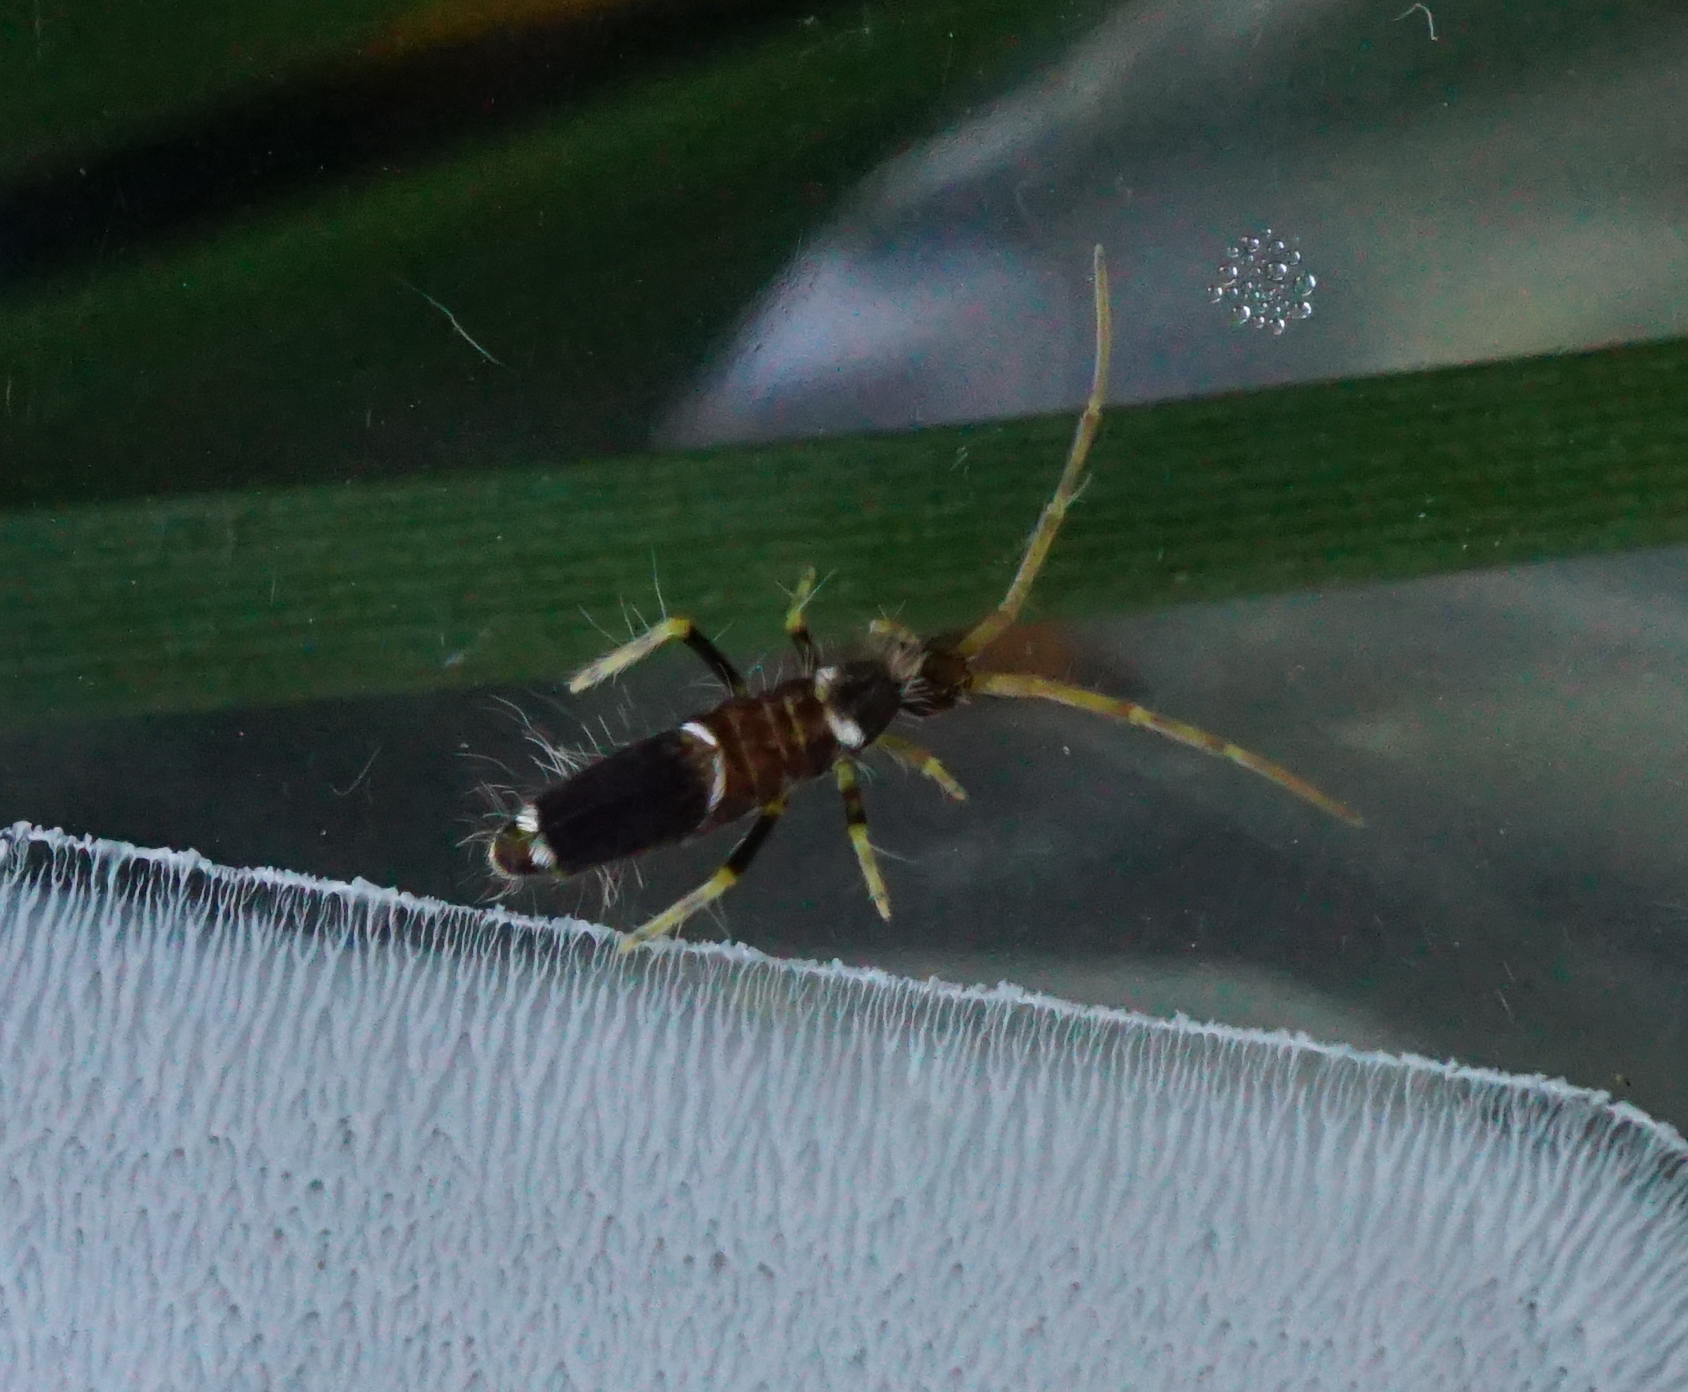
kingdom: Animalia
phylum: Arthropoda
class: Collembola
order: Entomobryomorpha
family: Entomobryidae
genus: Entomobrya
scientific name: Entomobrya dorsalis
